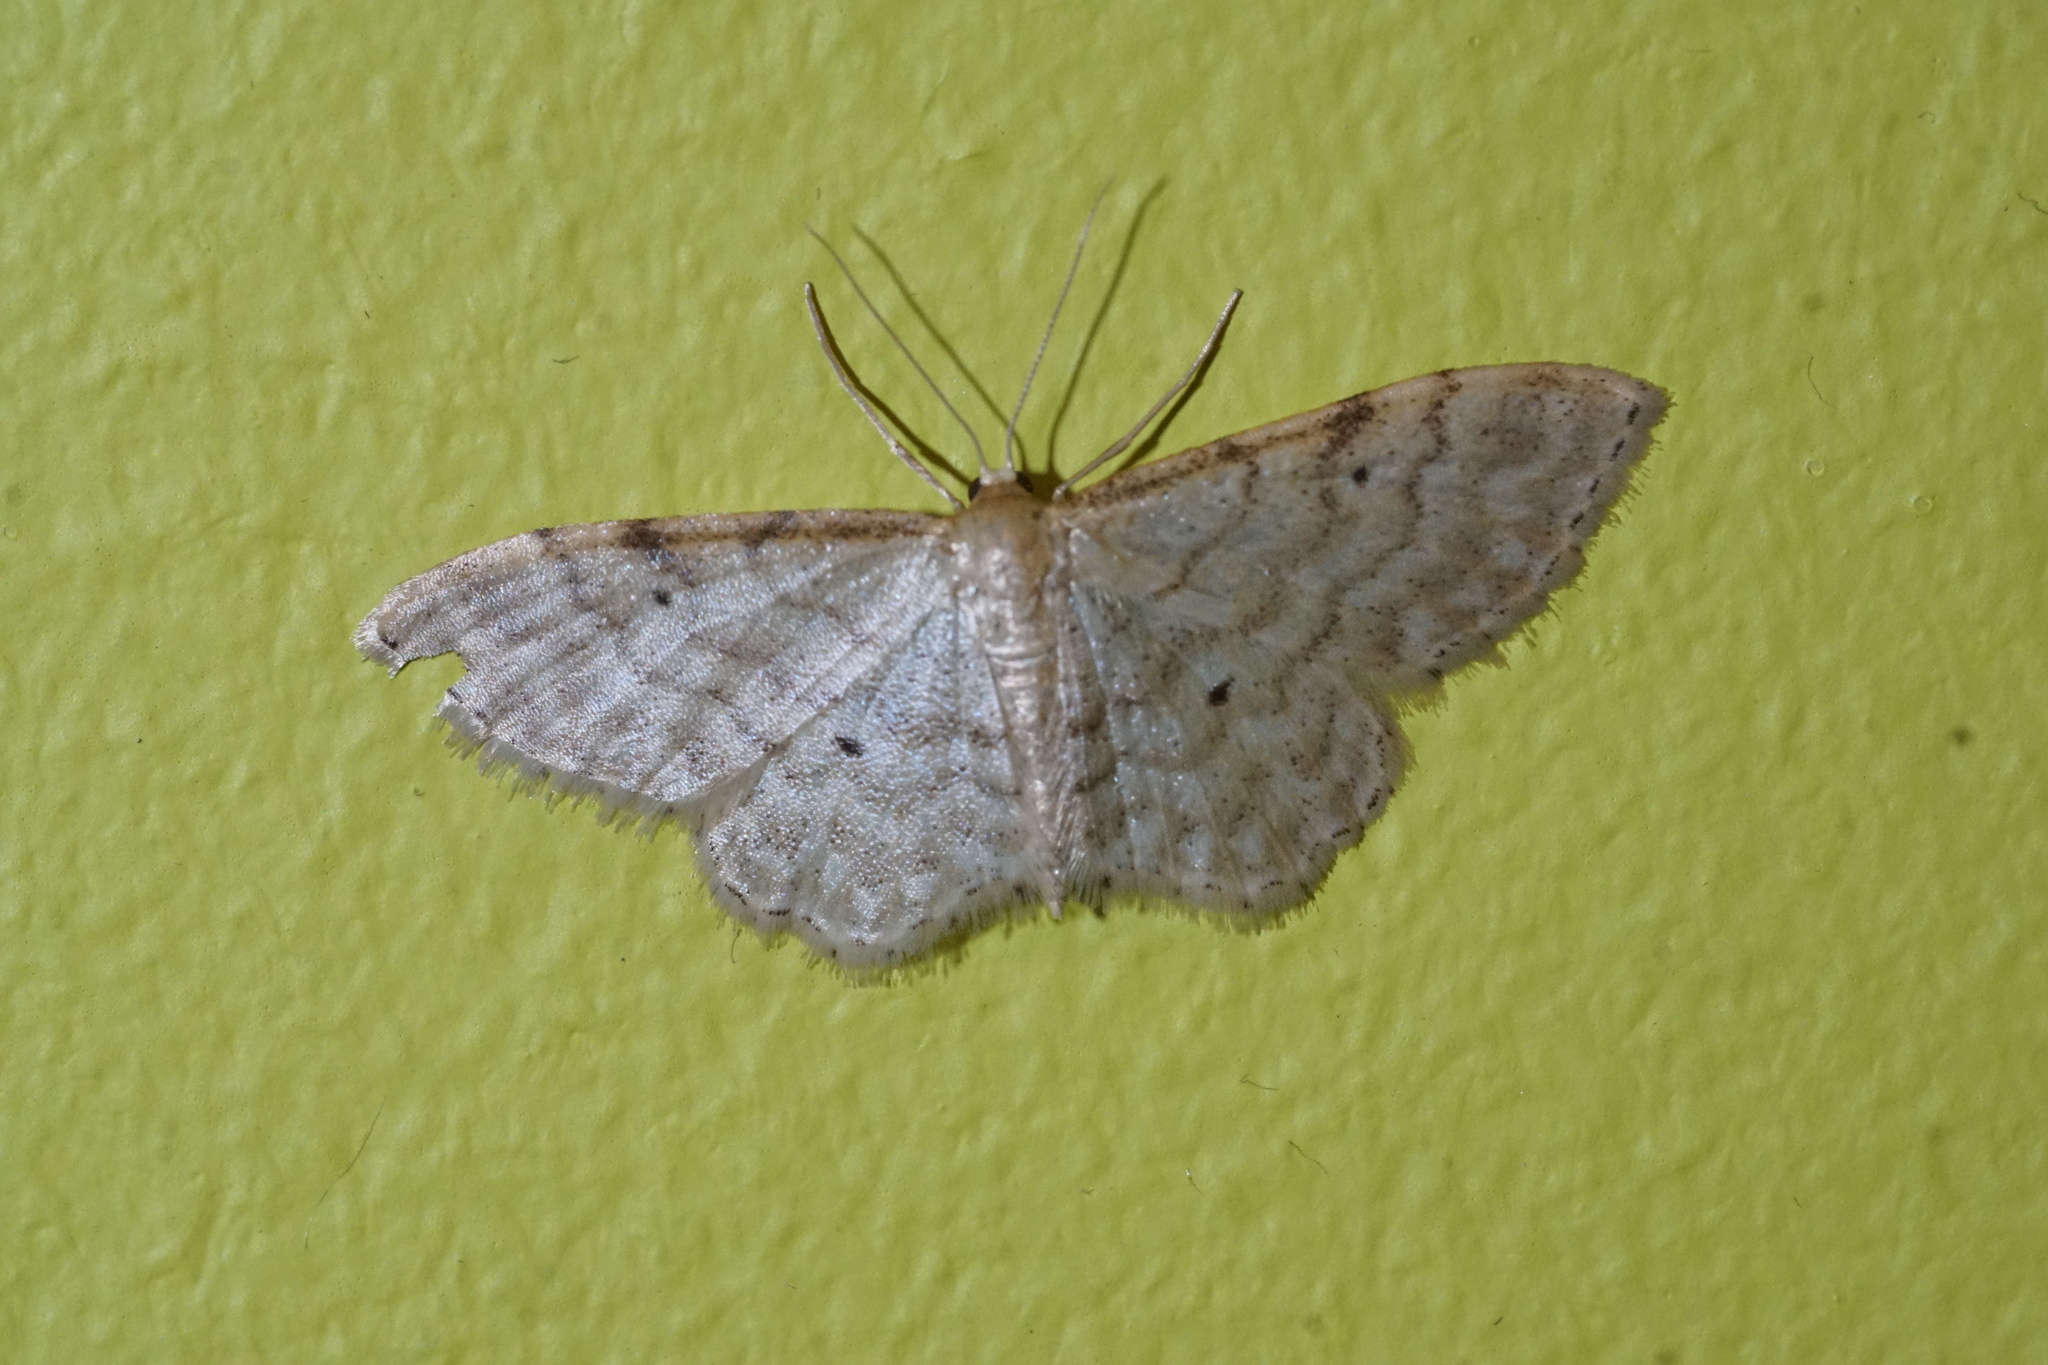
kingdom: Animalia
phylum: Arthropoda
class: Insecta
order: Lepidoptera
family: Geometridae
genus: Idaea
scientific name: Idaea fuscovenosa
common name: Dwarf cream wave
